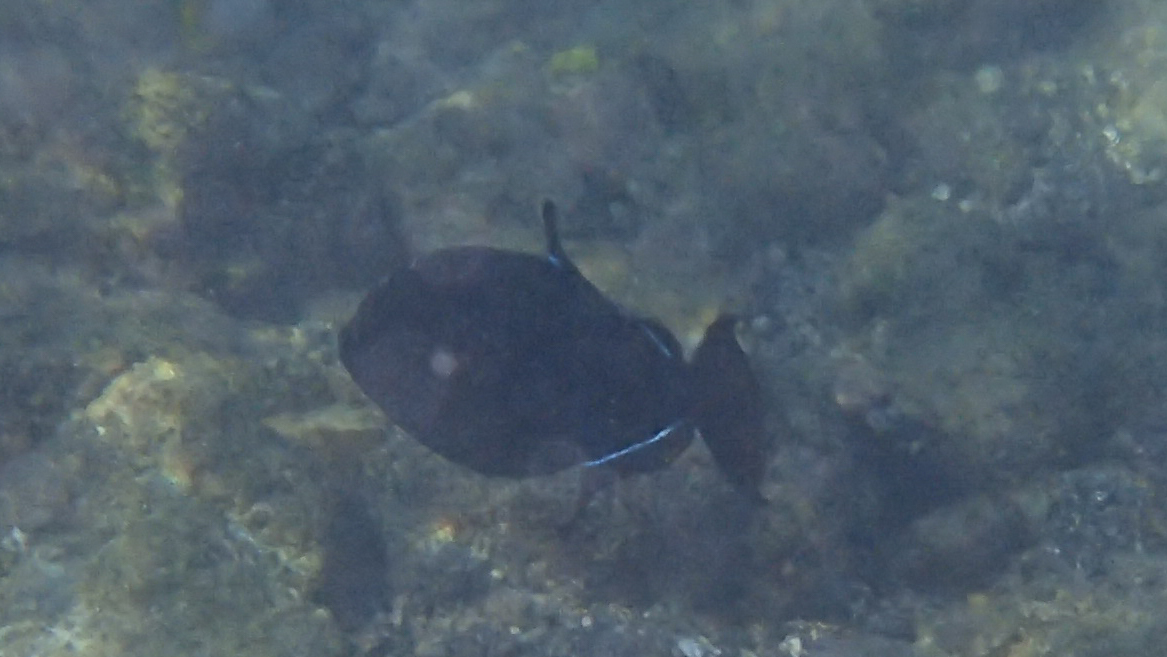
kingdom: Animalia
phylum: Chordata
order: Tetraodontiformes
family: Balistidae
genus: Melichthys
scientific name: Melichthys niger
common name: Black durgon
